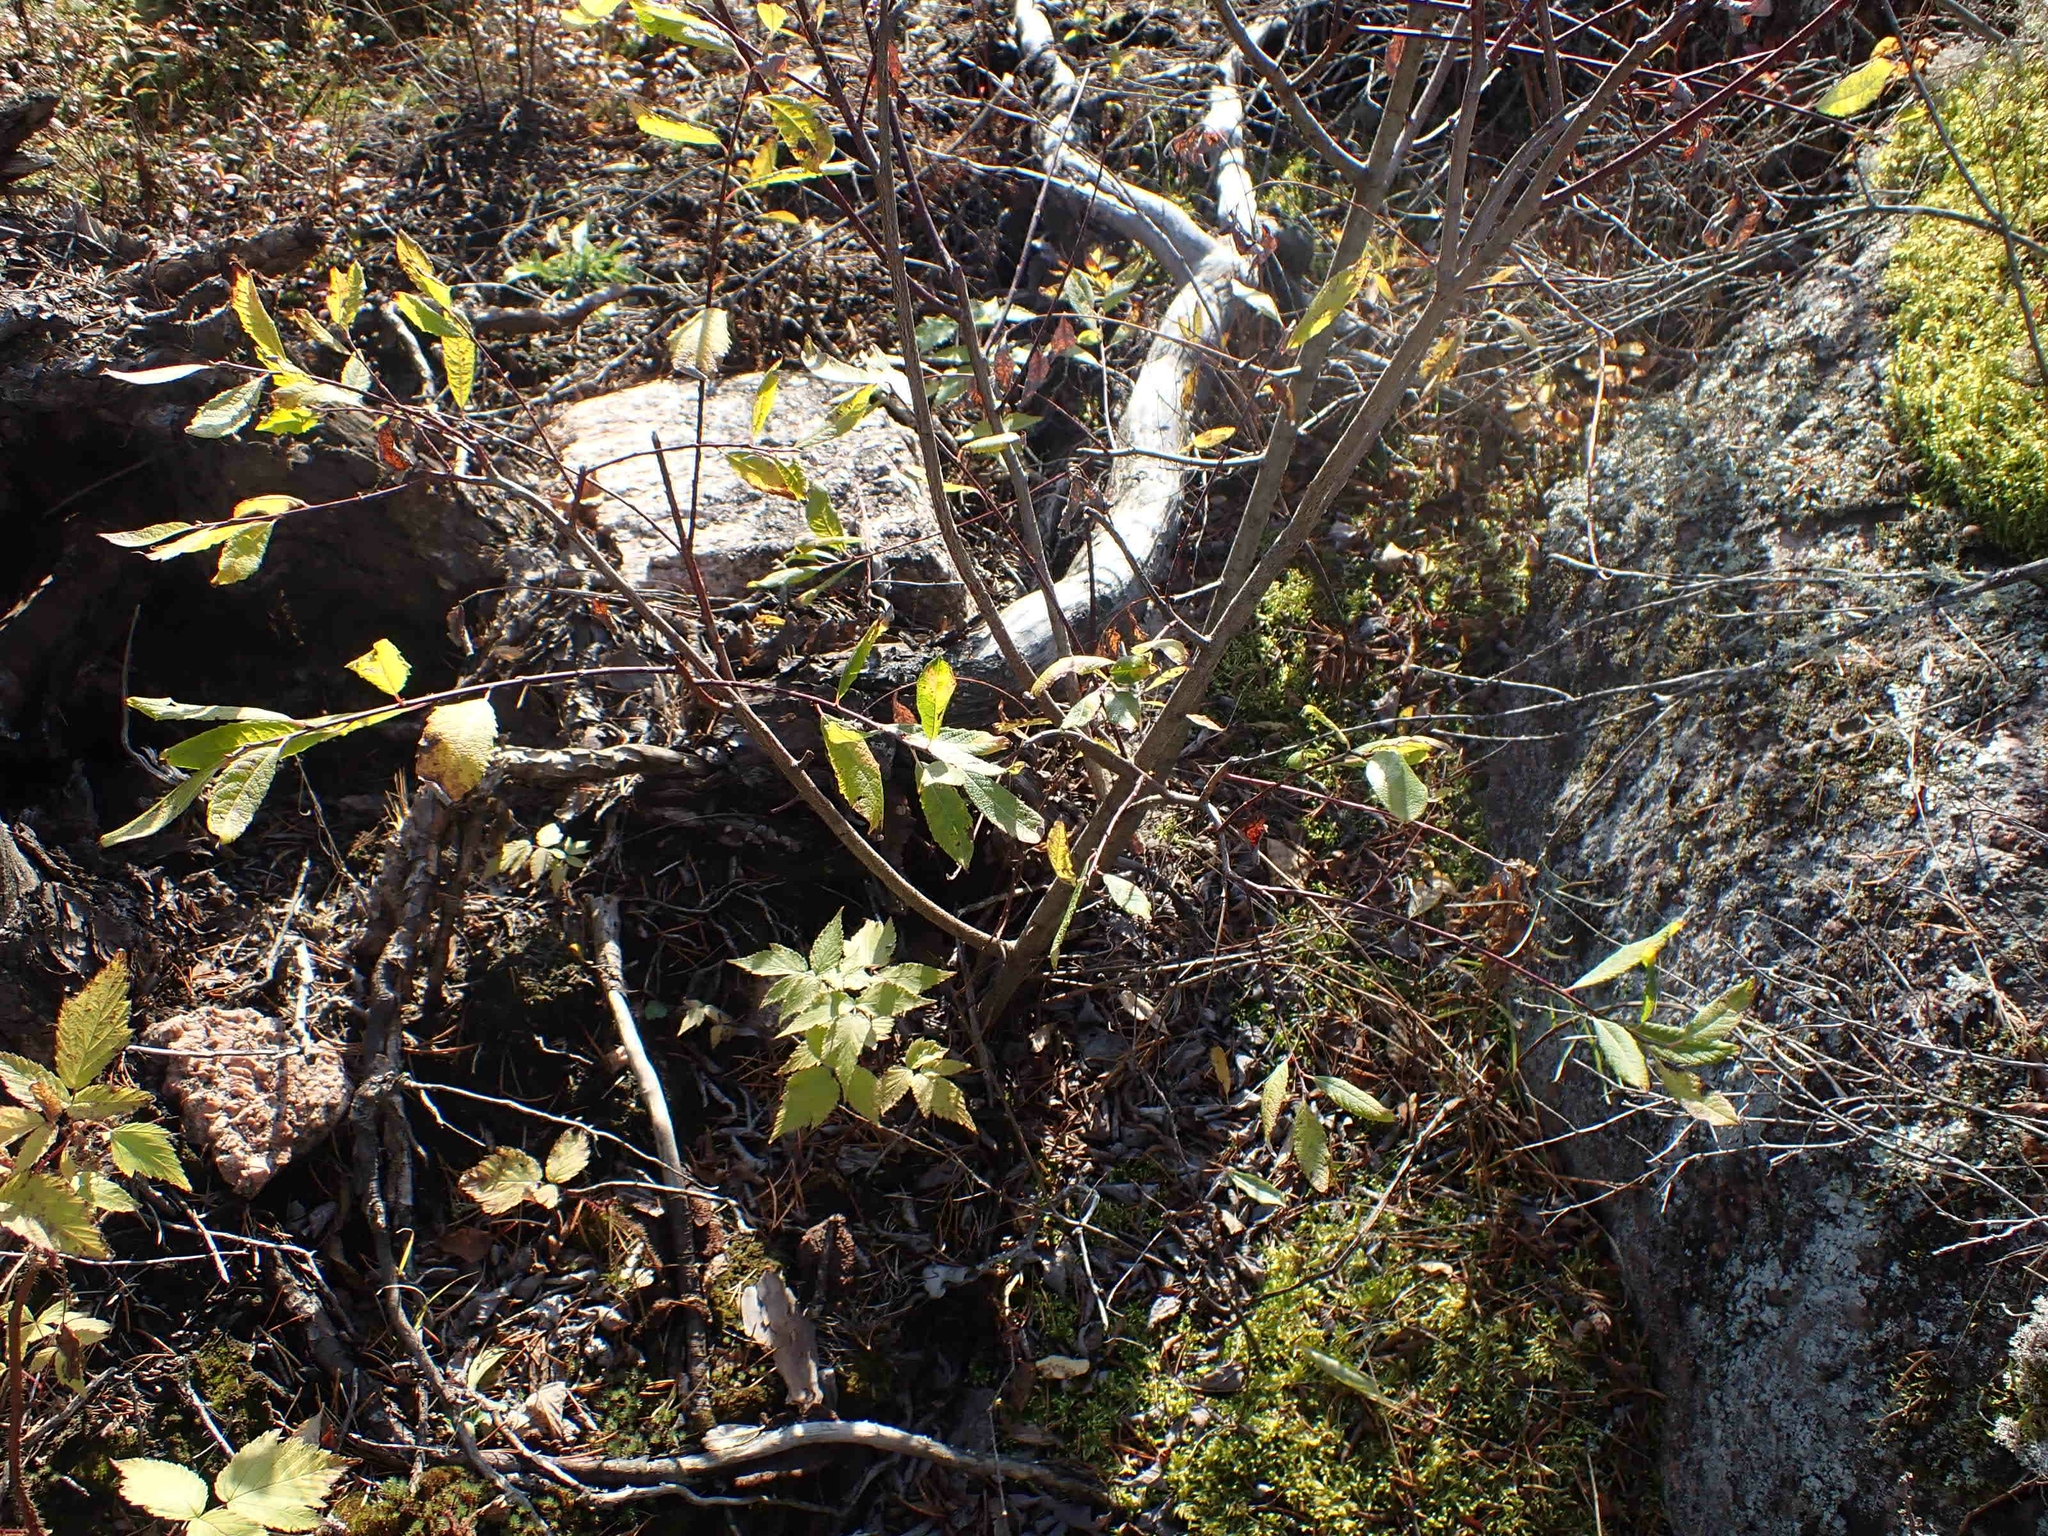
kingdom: Plantae
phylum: Tracheophyta
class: Magnoliopsida
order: Rosales
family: Rosaceae
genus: Spiraea
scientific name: Spiraea alba
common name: Pale bridewort
